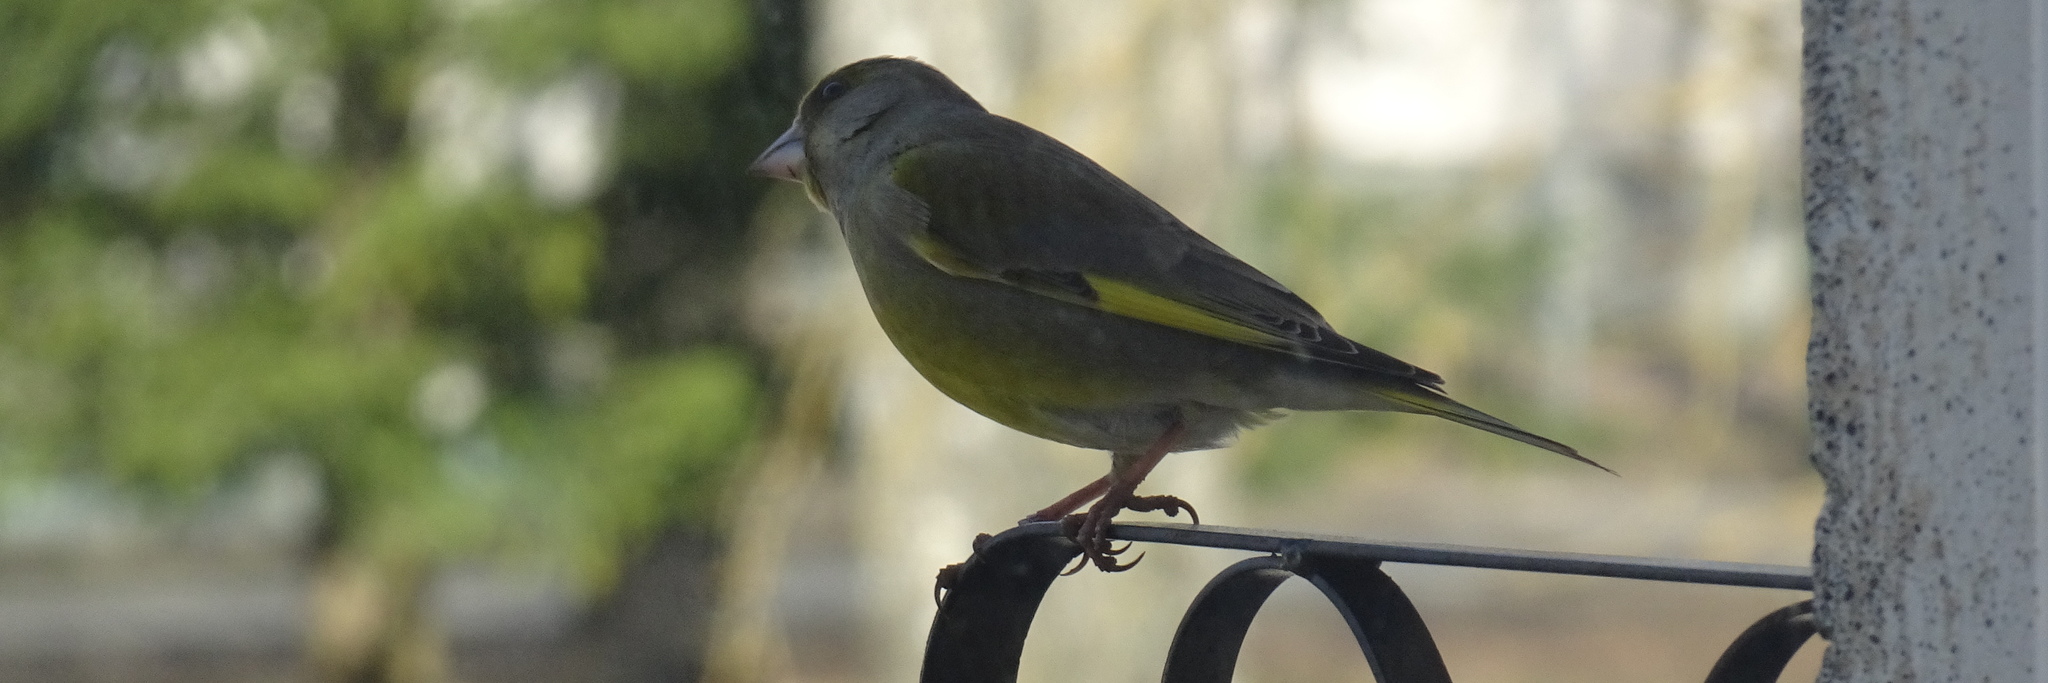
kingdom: Plantae
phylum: Tracheophyta
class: Liliopsida
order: Poales
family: Poaceae
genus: Chloris
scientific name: Chloris chloris
